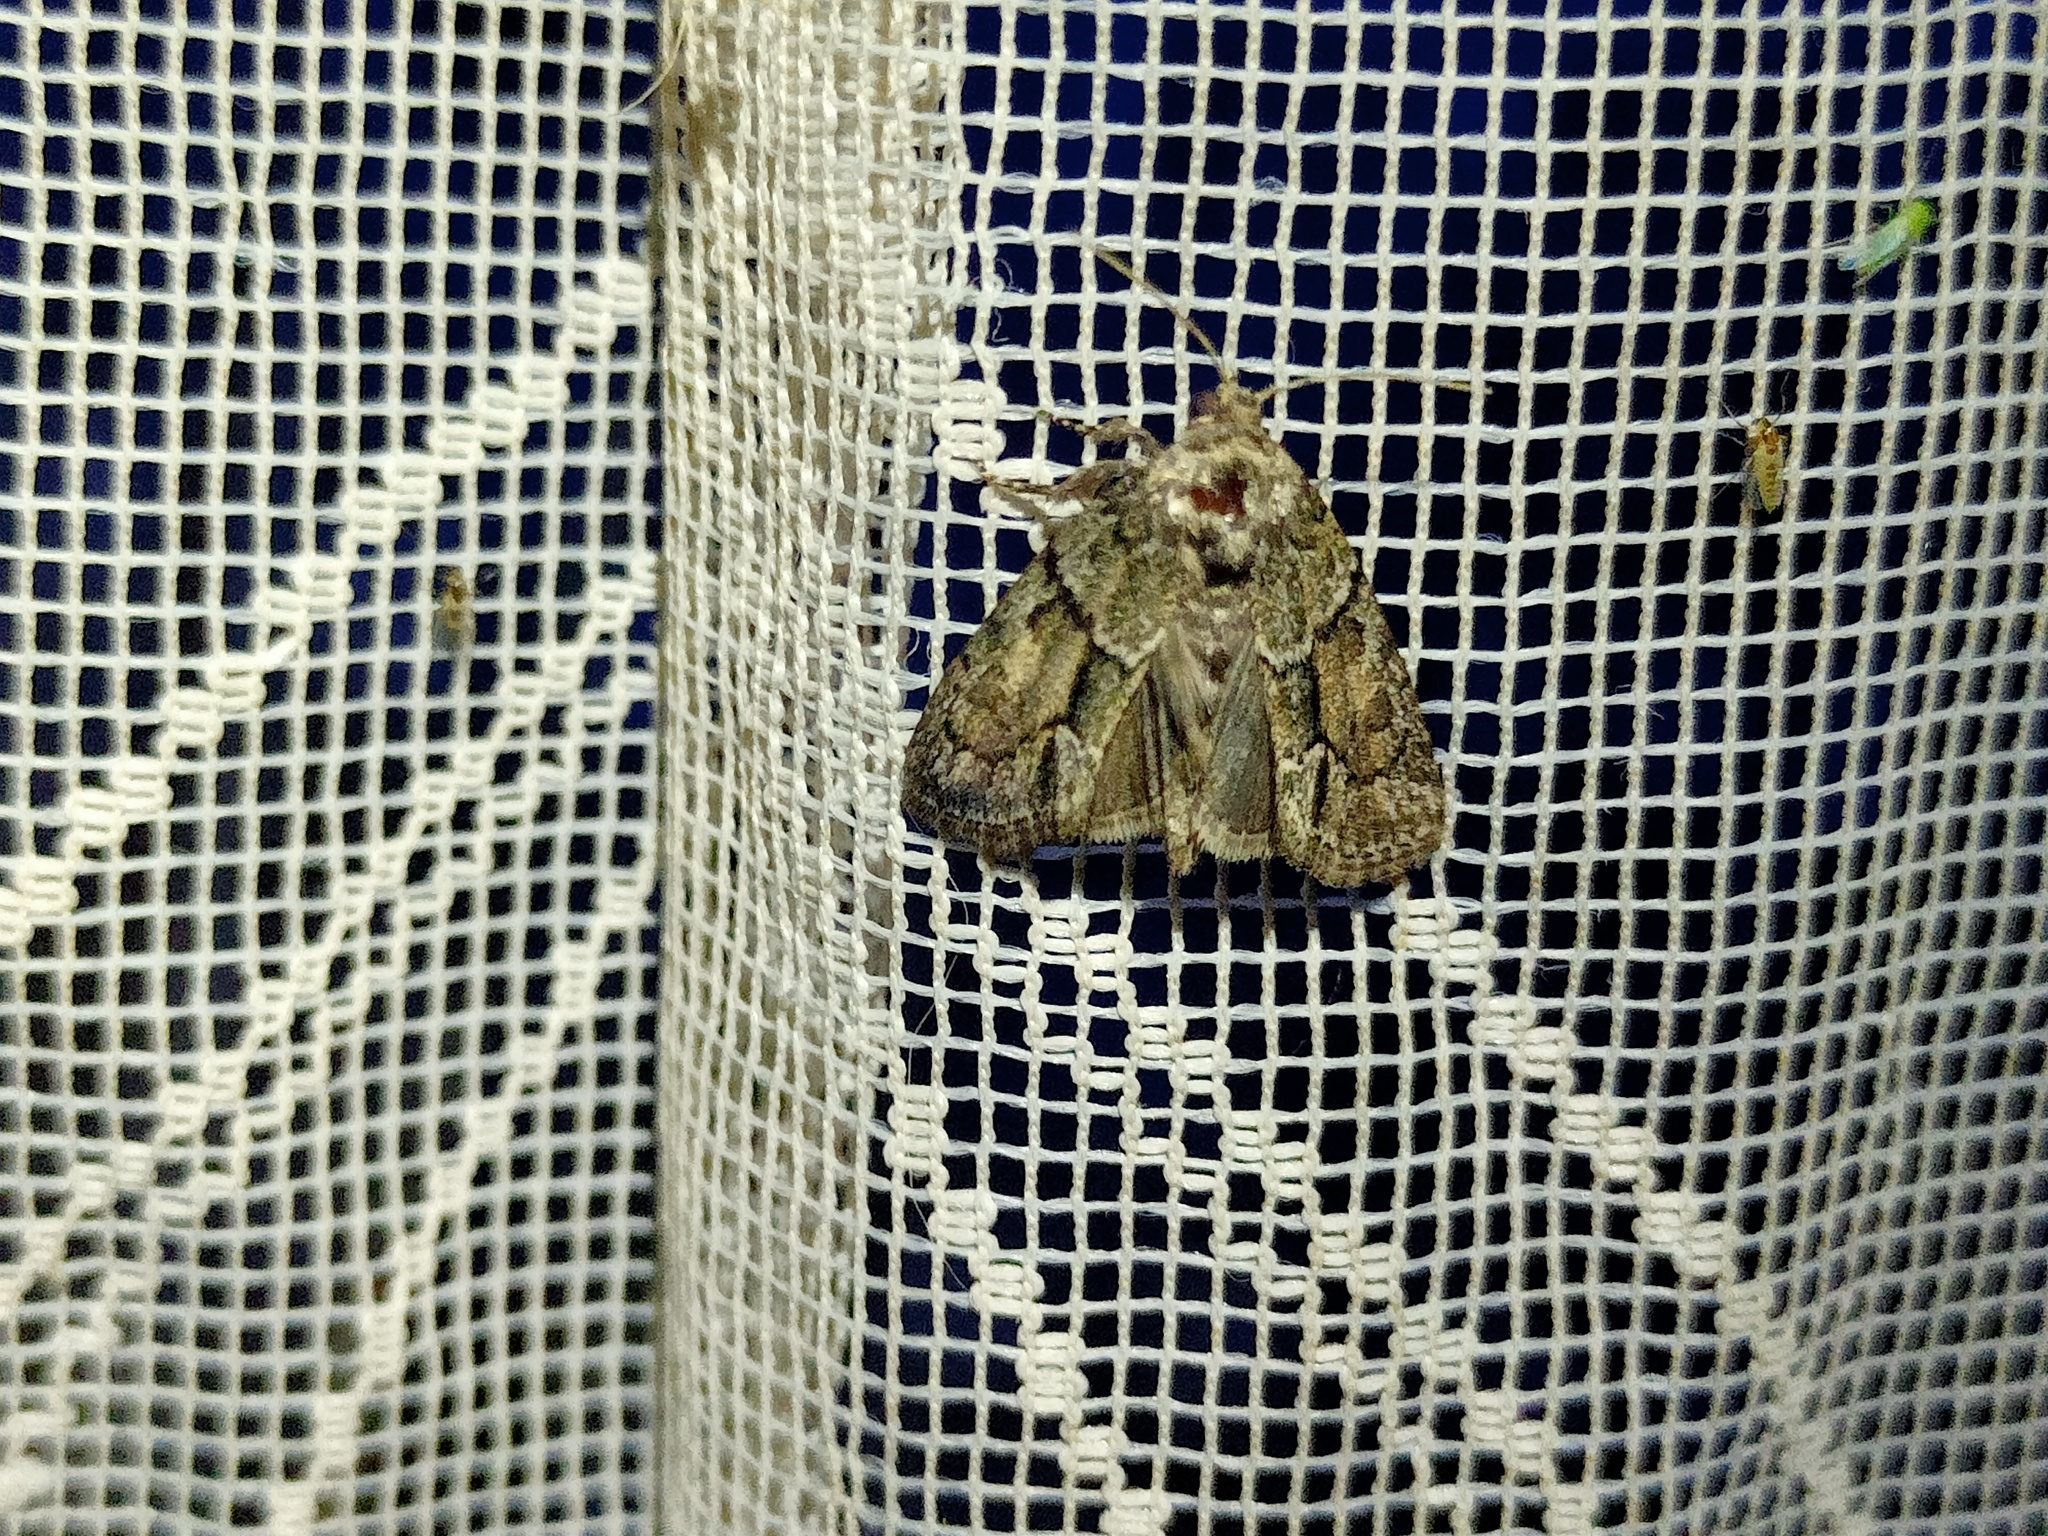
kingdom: Animalia
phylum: Arthropoda
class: Insecta
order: Lepidoptera
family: Noctuidae
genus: Cryphia
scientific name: Cryphia fraudatricula
